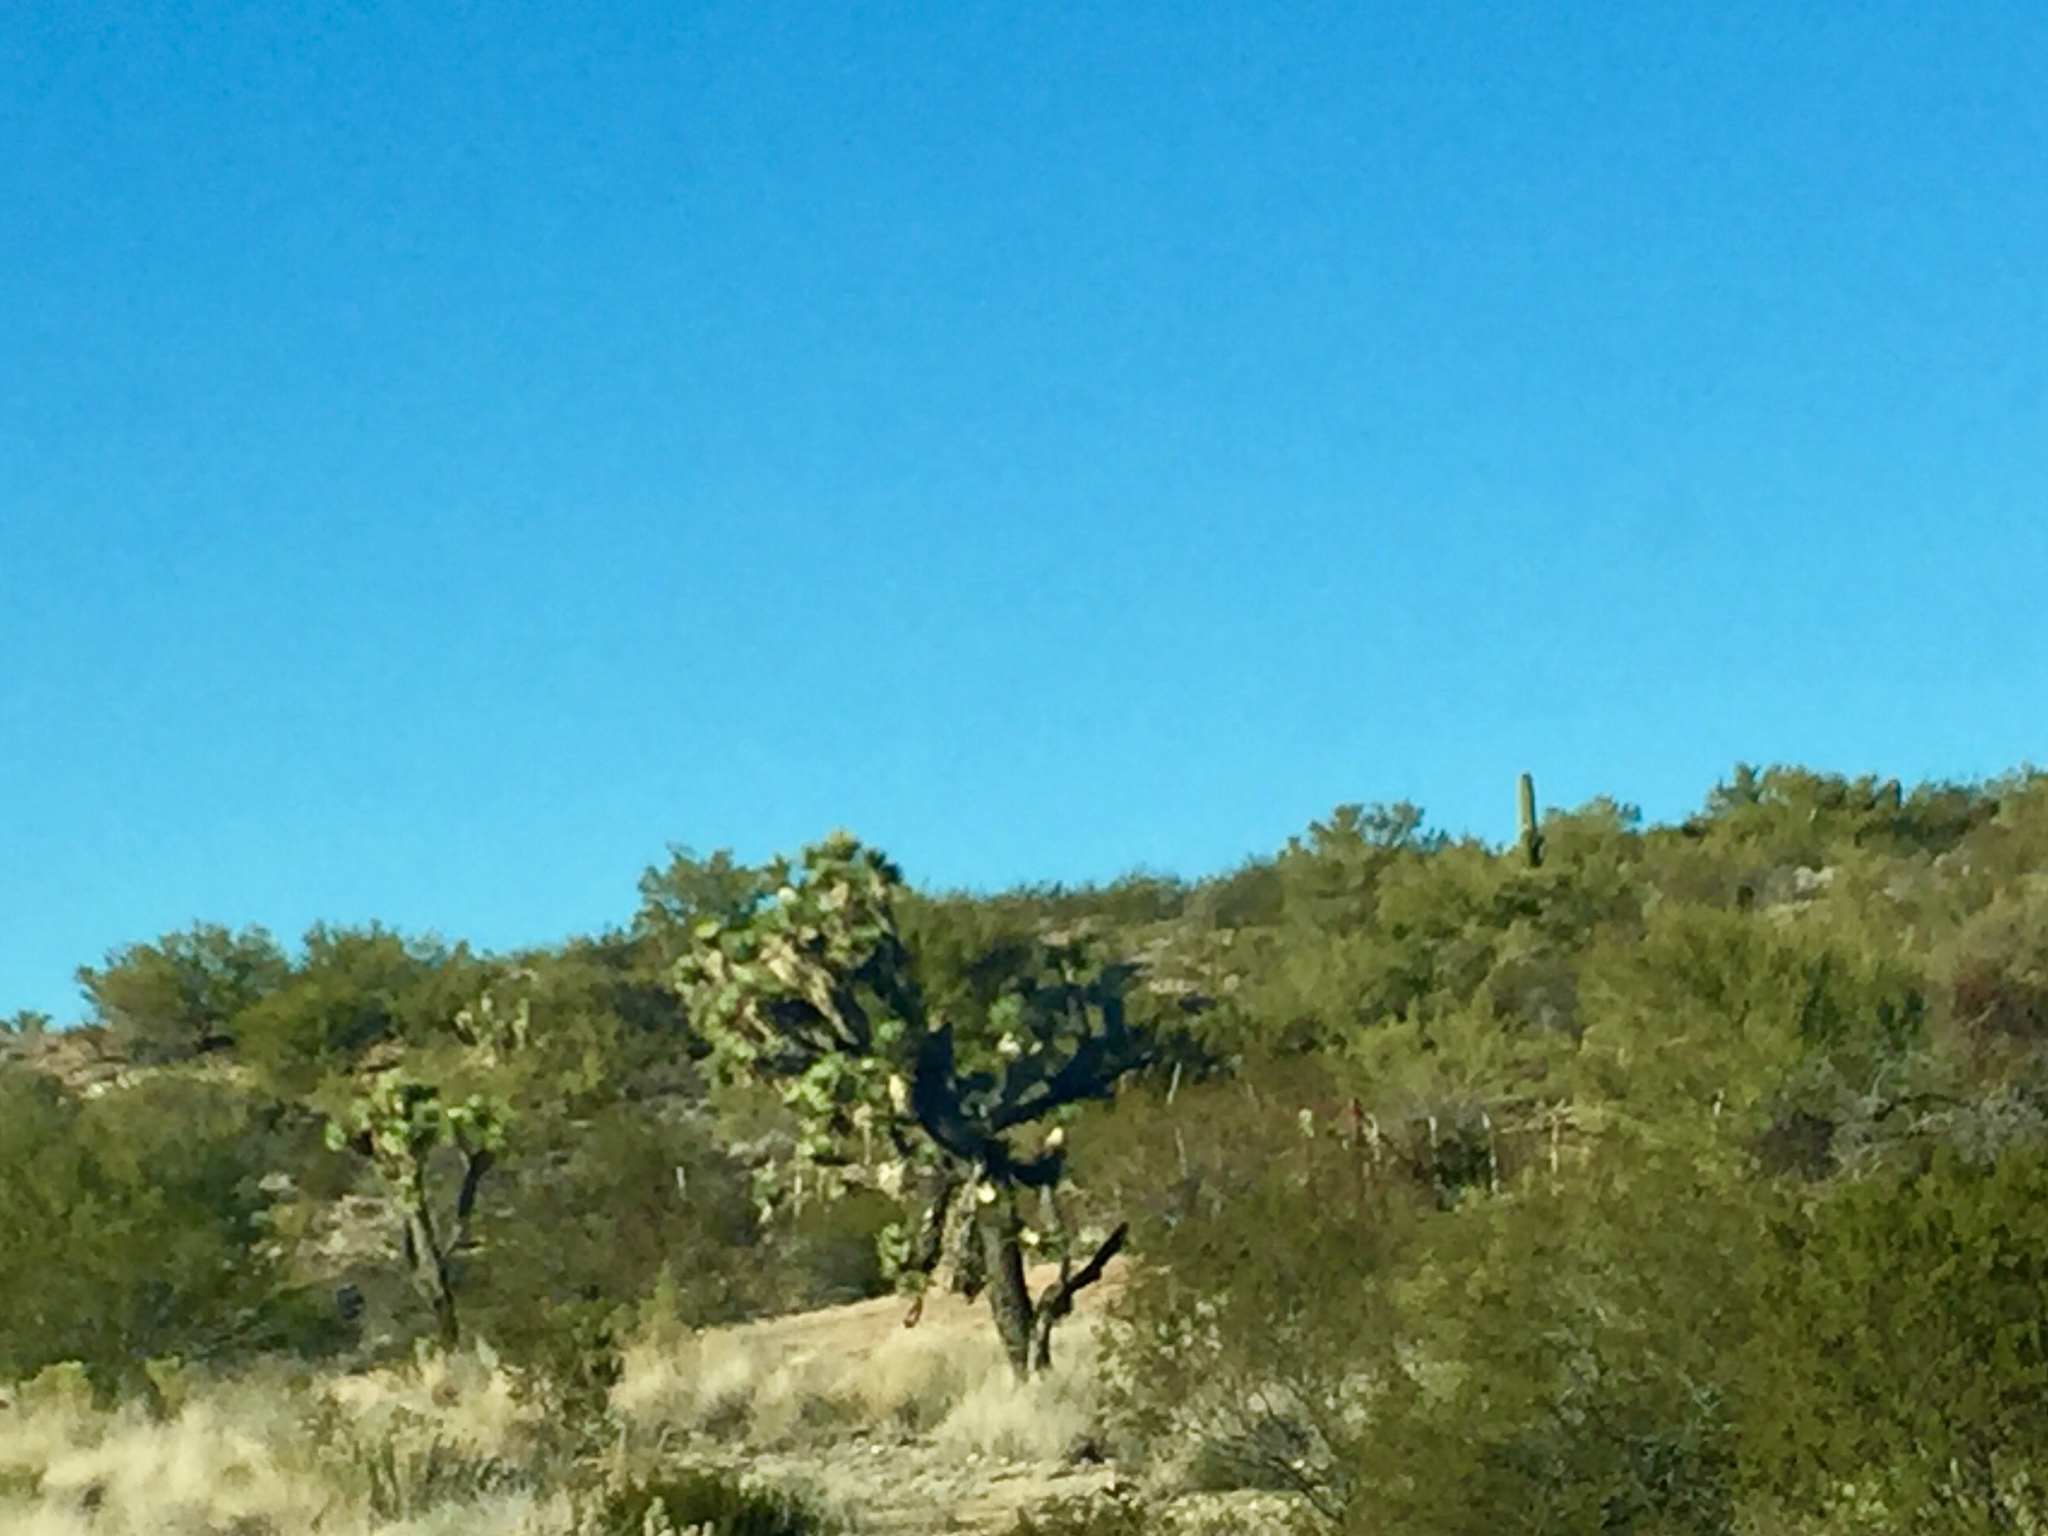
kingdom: Plantae
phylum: Tracheophyta
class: Liliopsida
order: Asparagales
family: Asparagaceae
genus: Yucca
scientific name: Yucca brevifolia
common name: Joshua tree
